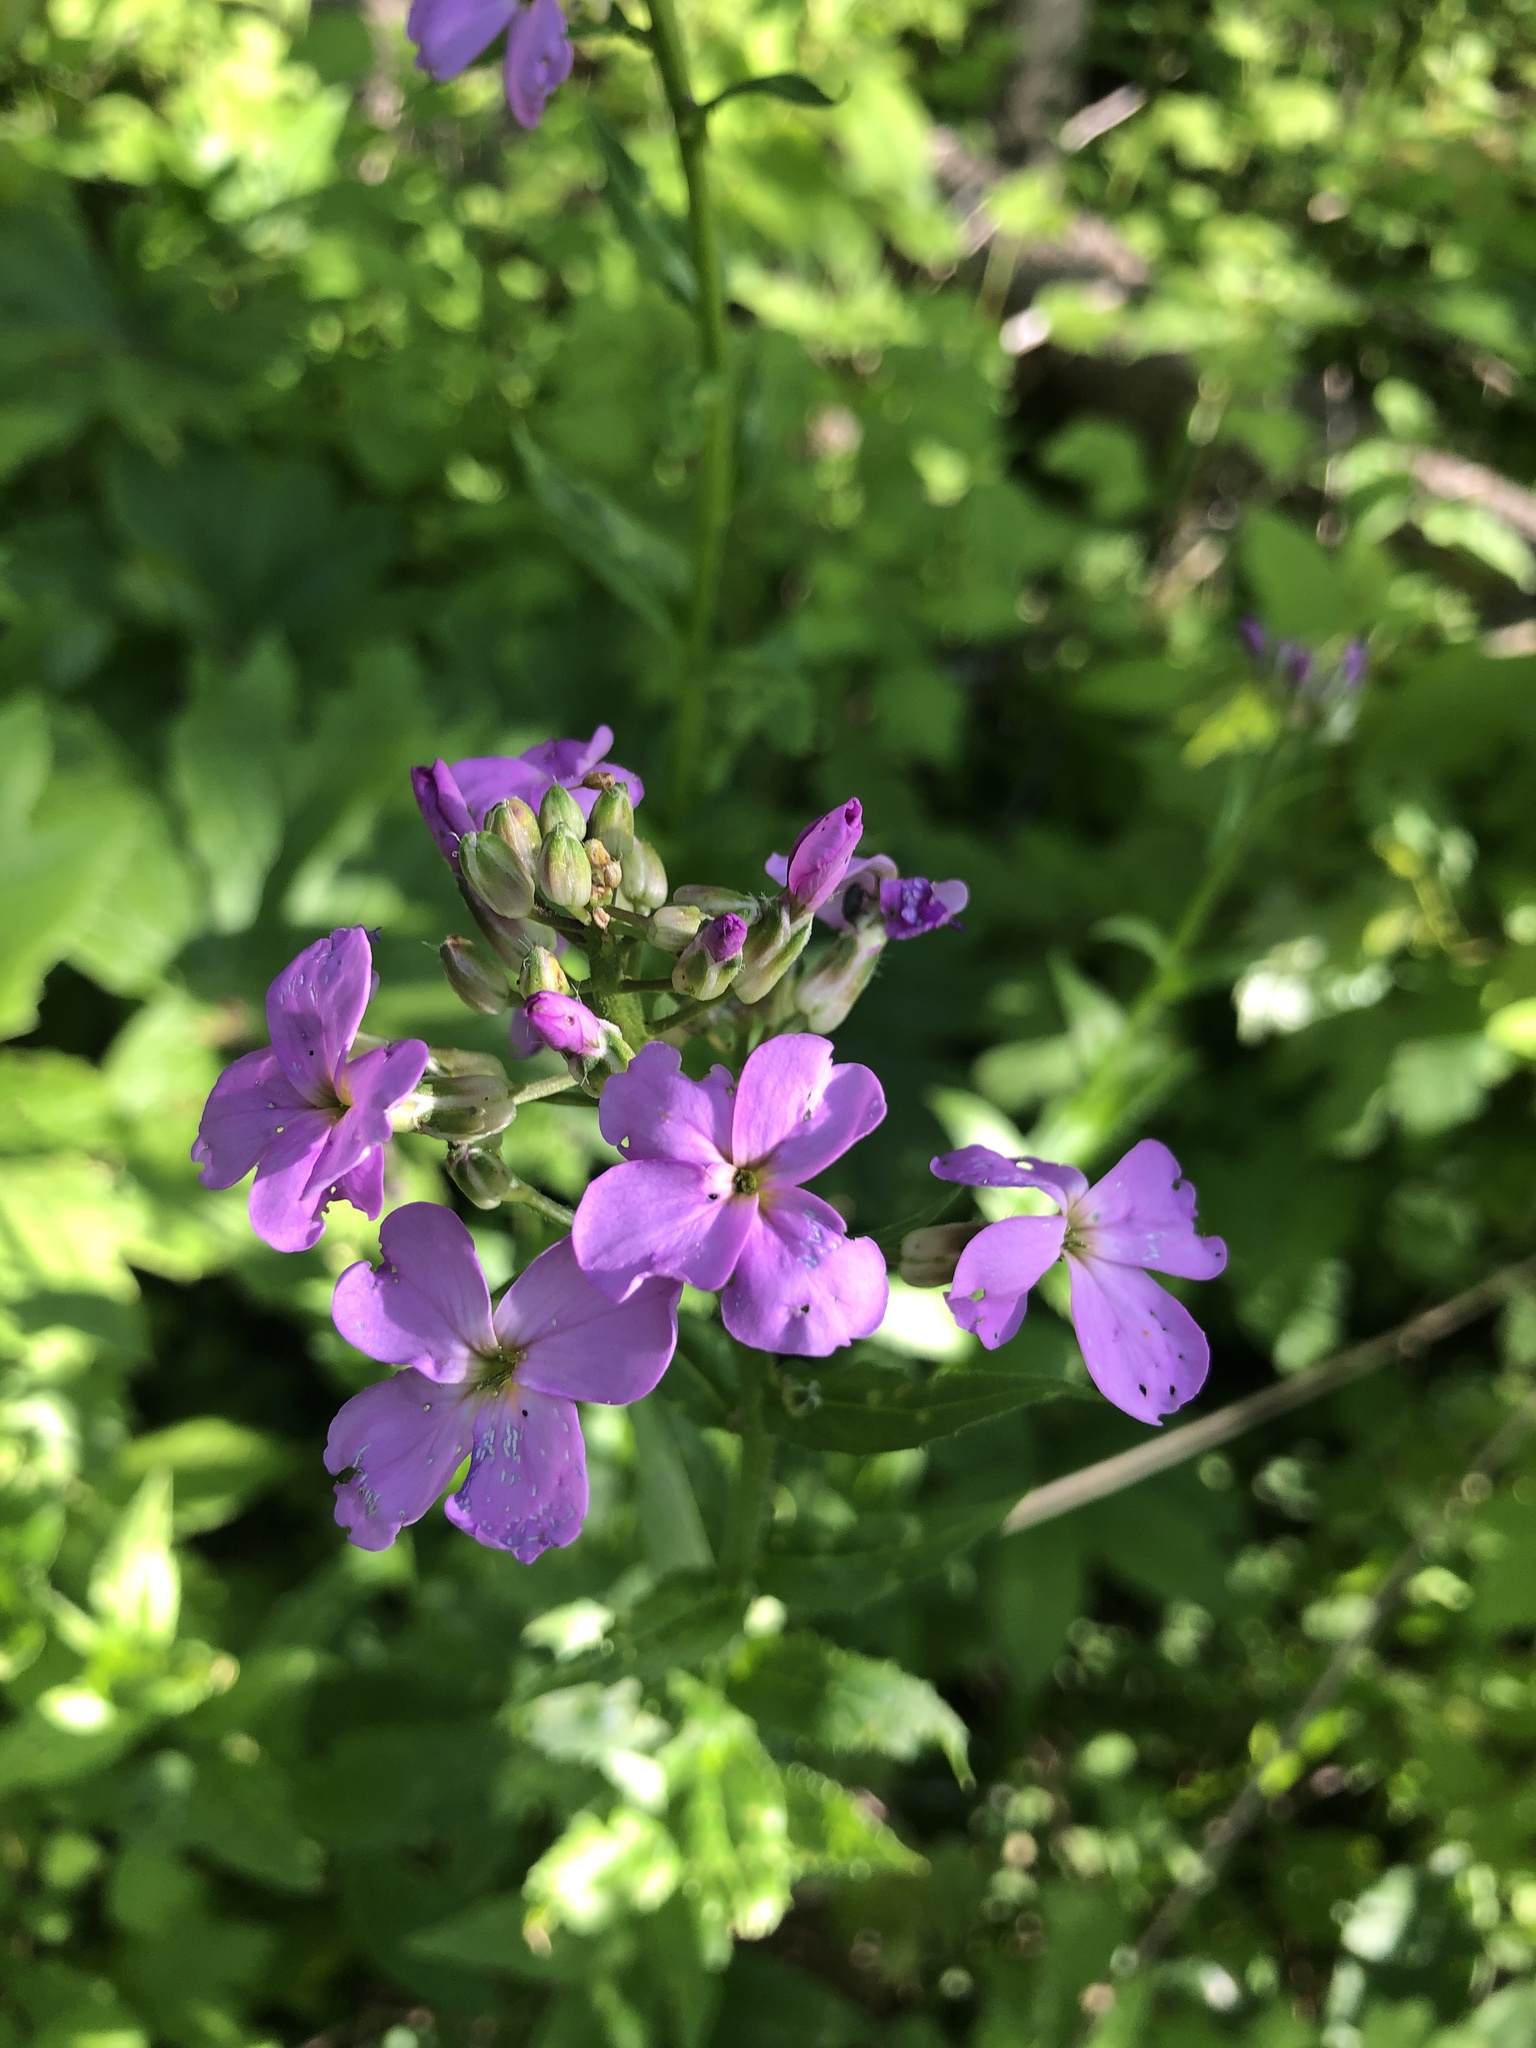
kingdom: Plantae
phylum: Tracheophyta
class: Magnoliopsida
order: Brassicales
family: Brassicaceae
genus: Hesperis
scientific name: Hesperis matronalis
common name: Dame's-violet
